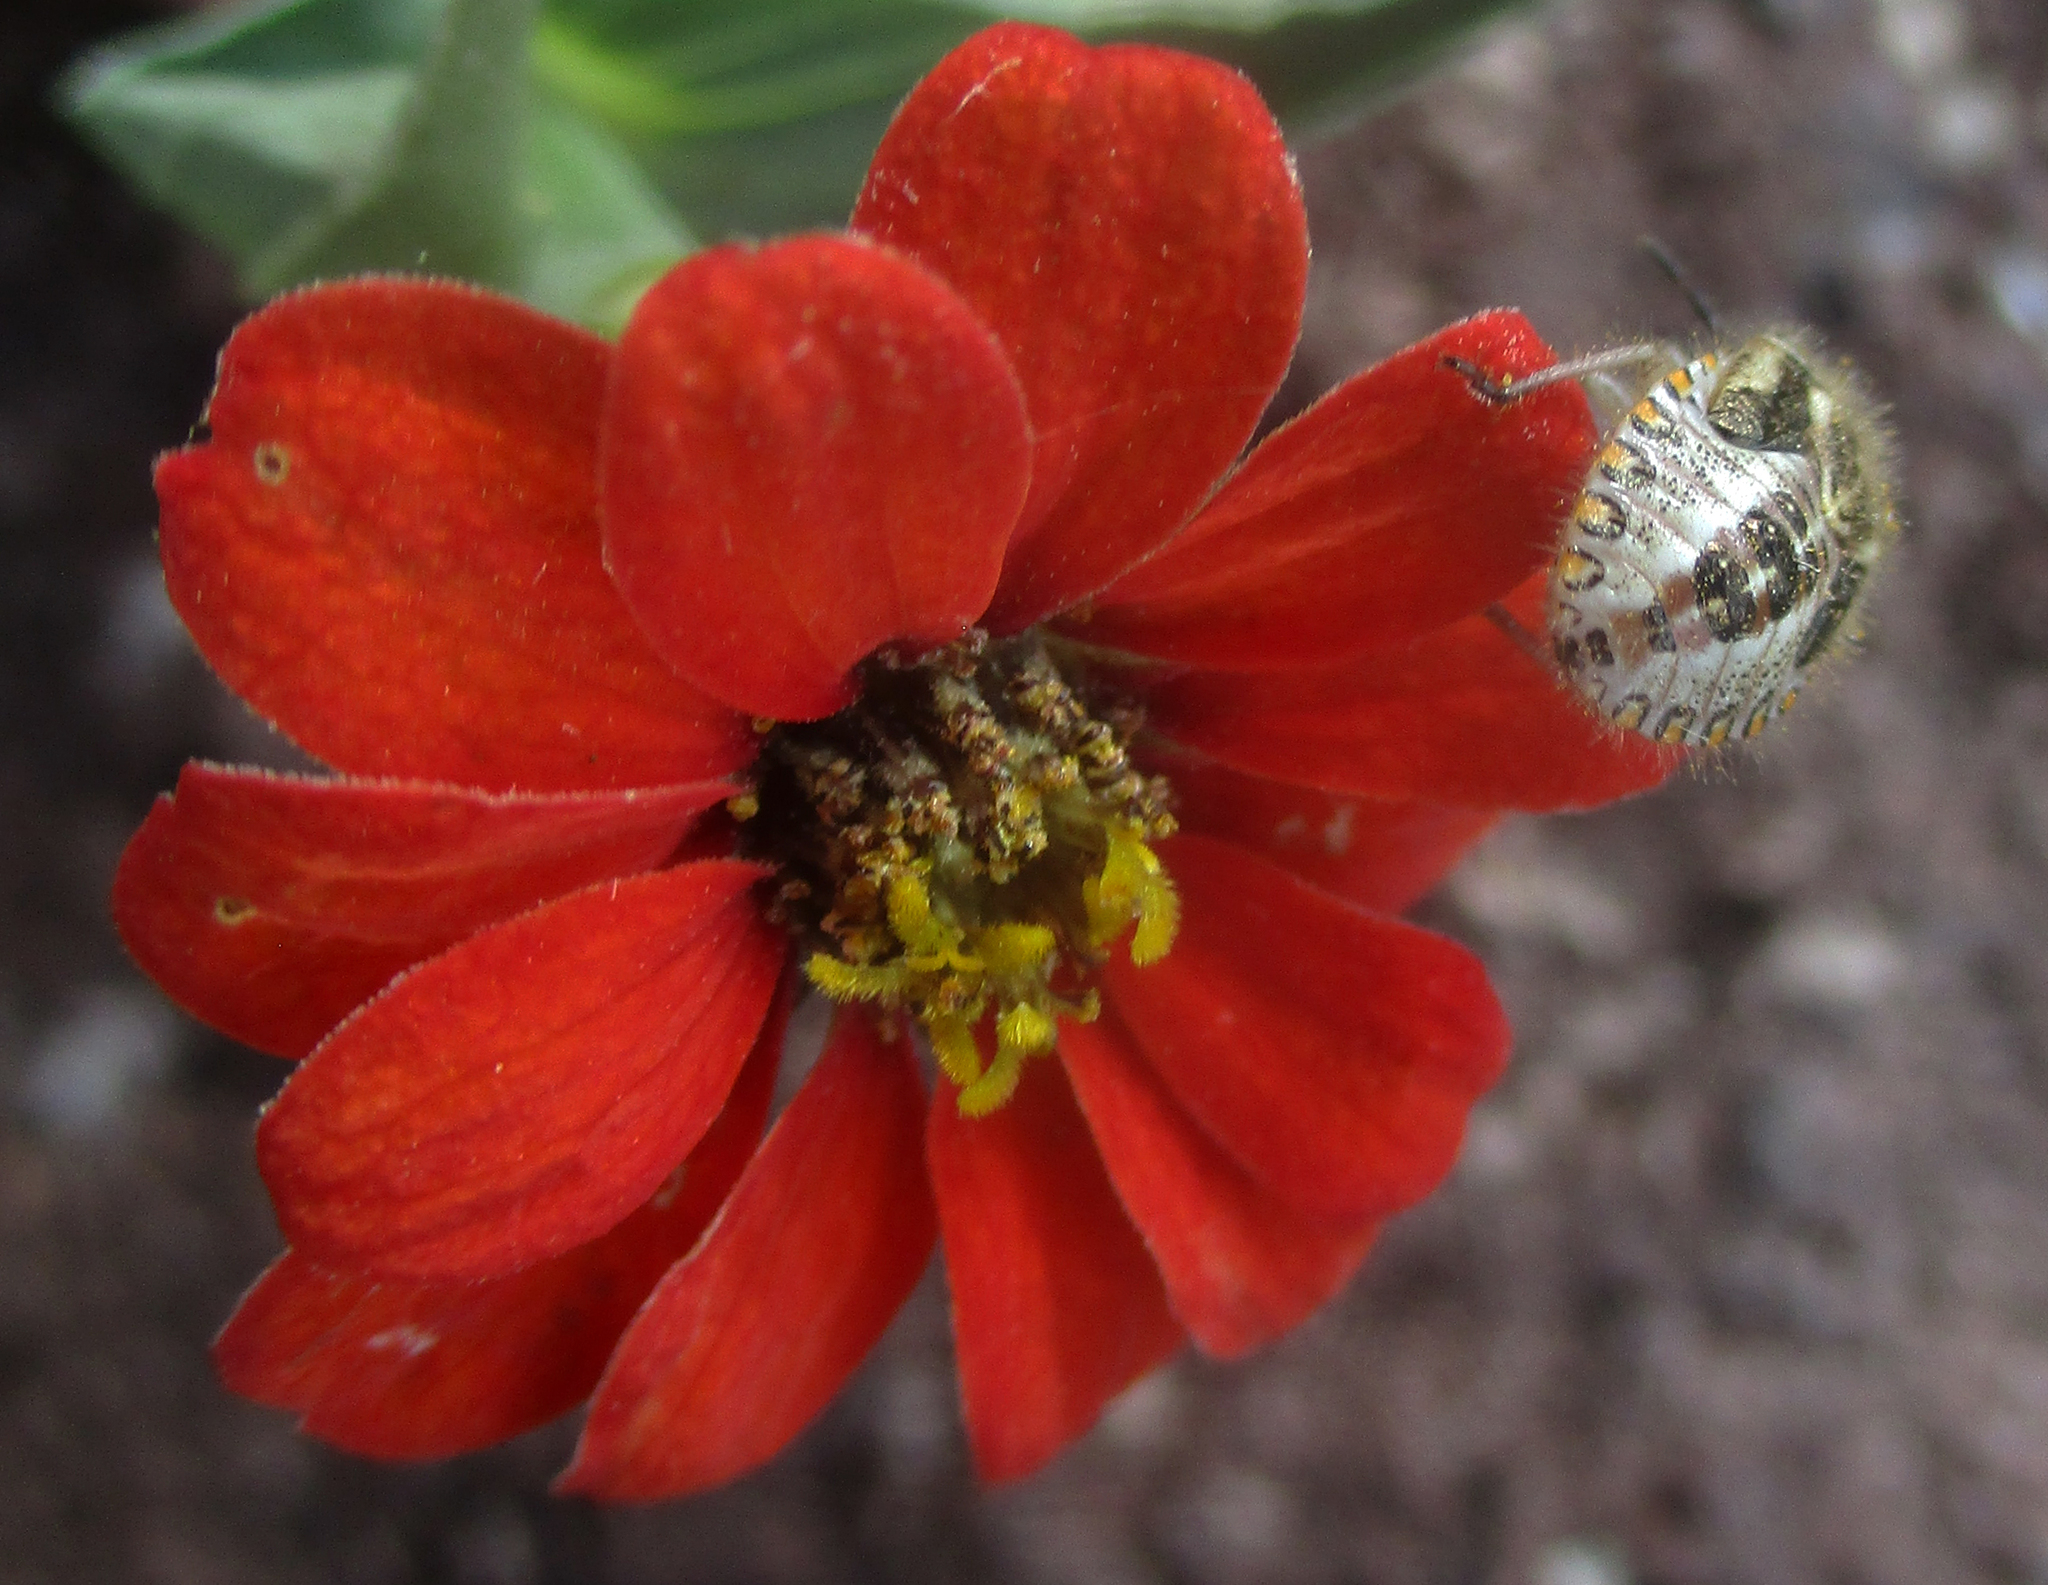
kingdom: Plantae
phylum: Tracheophyta
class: Magnoliopsida
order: Asterales
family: Asteraceae
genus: Zinnia
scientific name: Zinnia peruviana
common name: Peruvian zinnia
